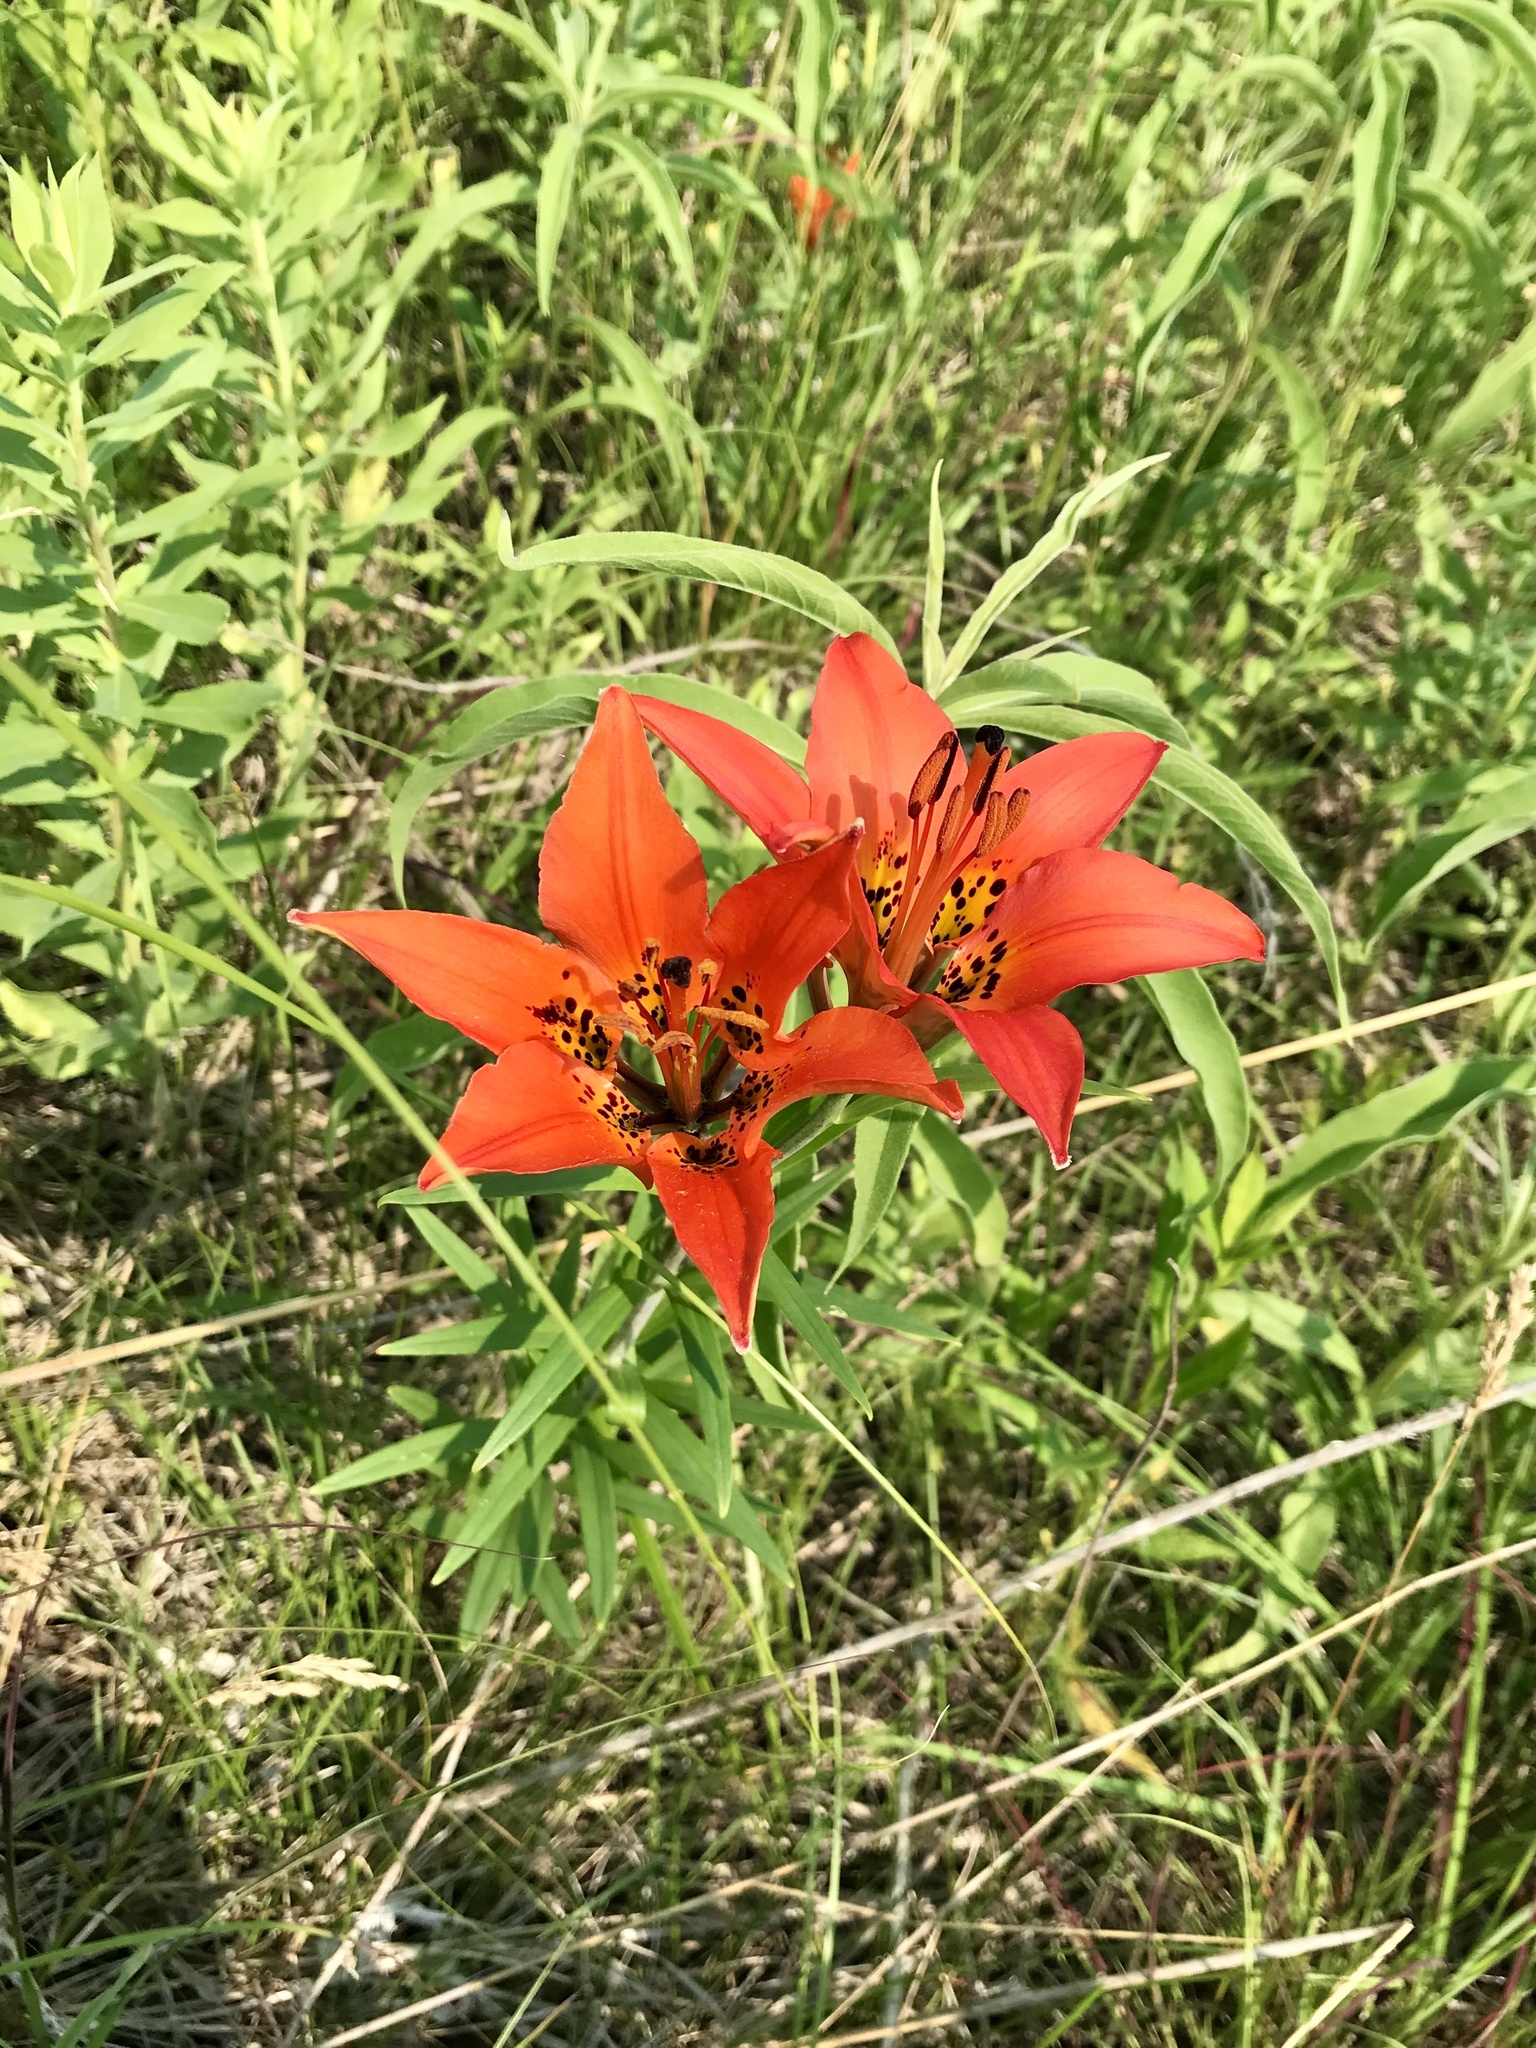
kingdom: Plantae
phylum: Tracheophyta
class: Liliopsida
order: Liliales
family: Liliaceae
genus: Lilium
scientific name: Lilium philadelphicum
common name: Red lily
